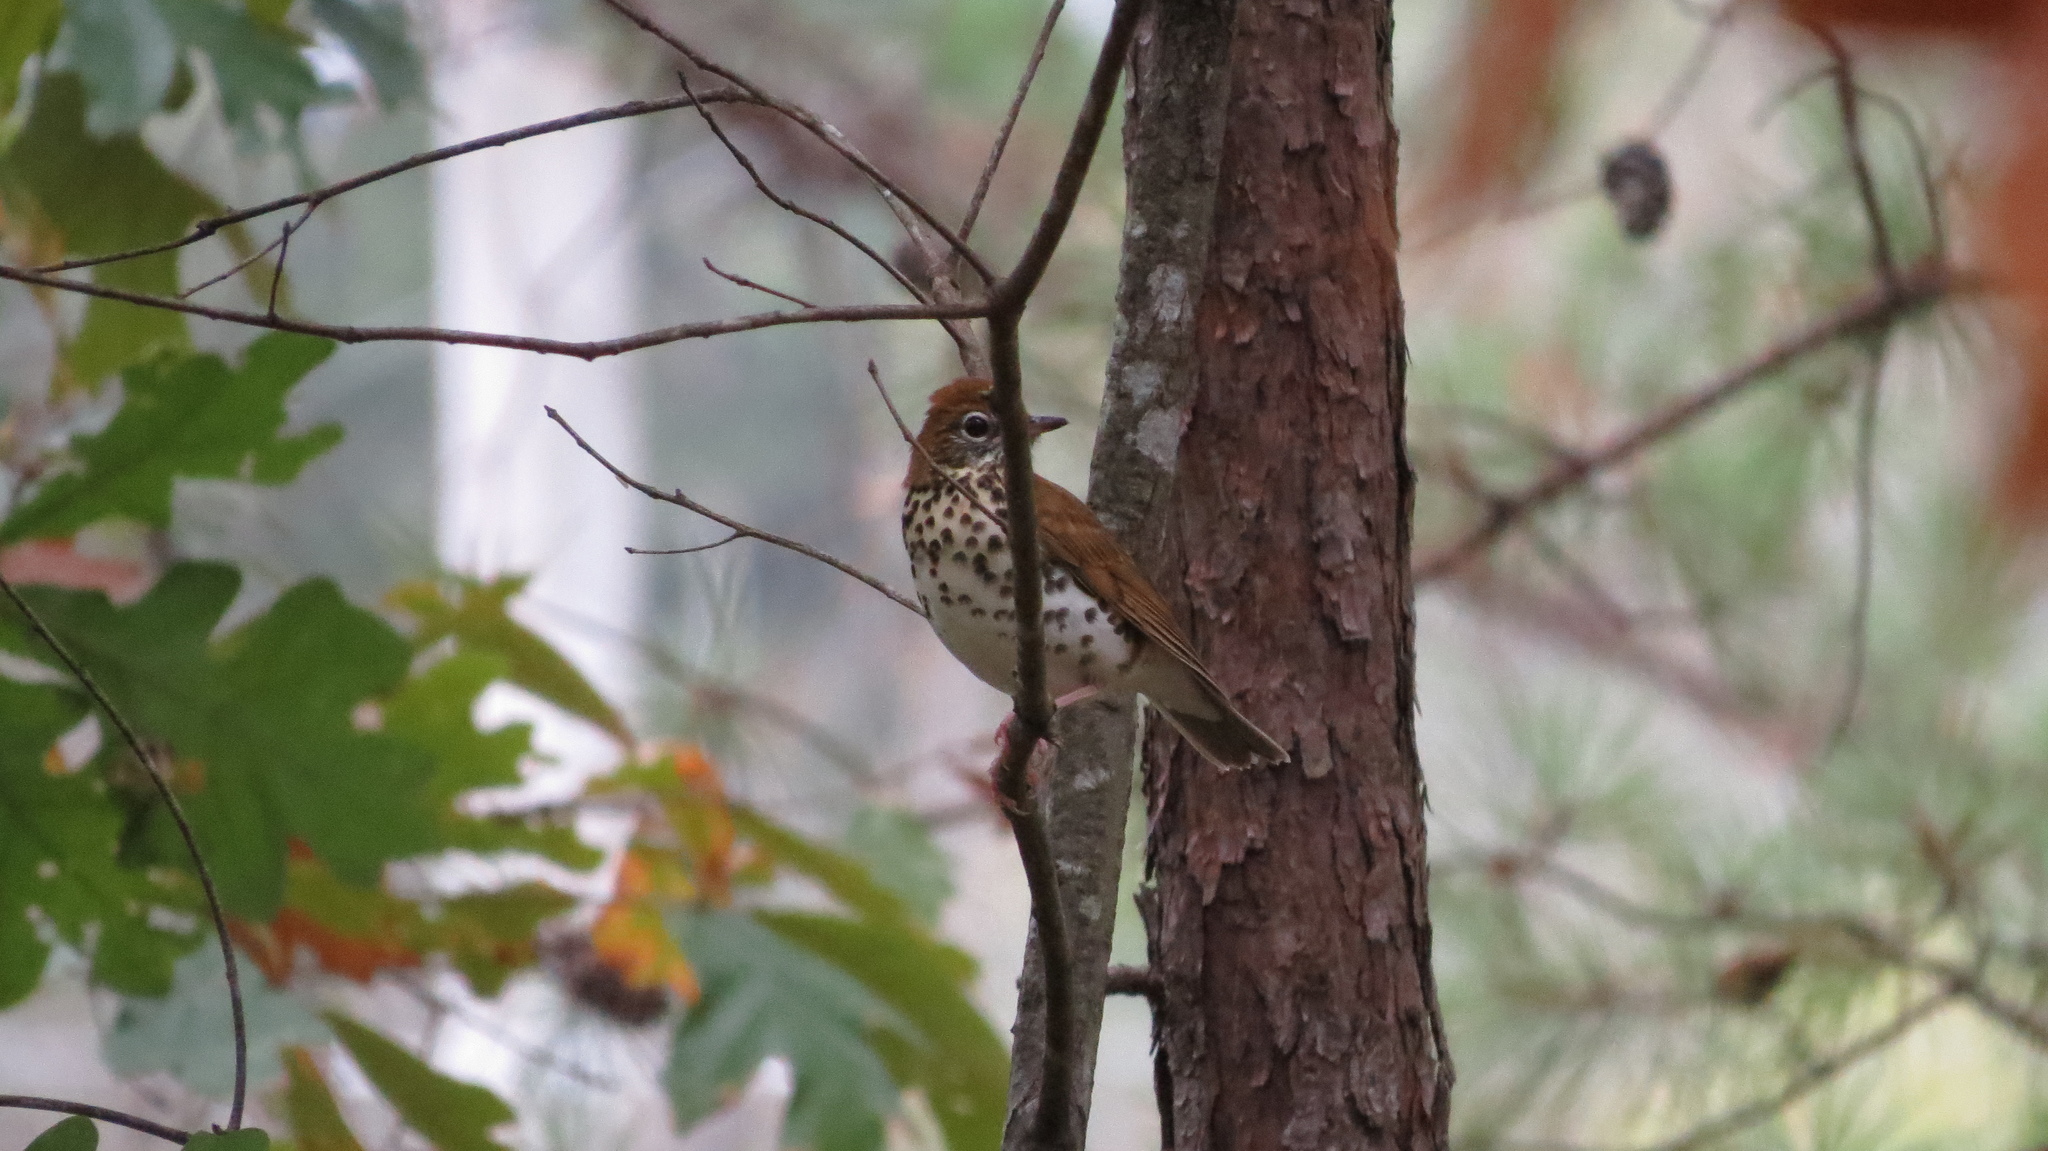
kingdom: Animalia
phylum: Chordata
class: Aves
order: Passeriformes
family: Turdidae
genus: Hylocichla
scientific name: Hylocichla mustelina
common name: Wood thrush
